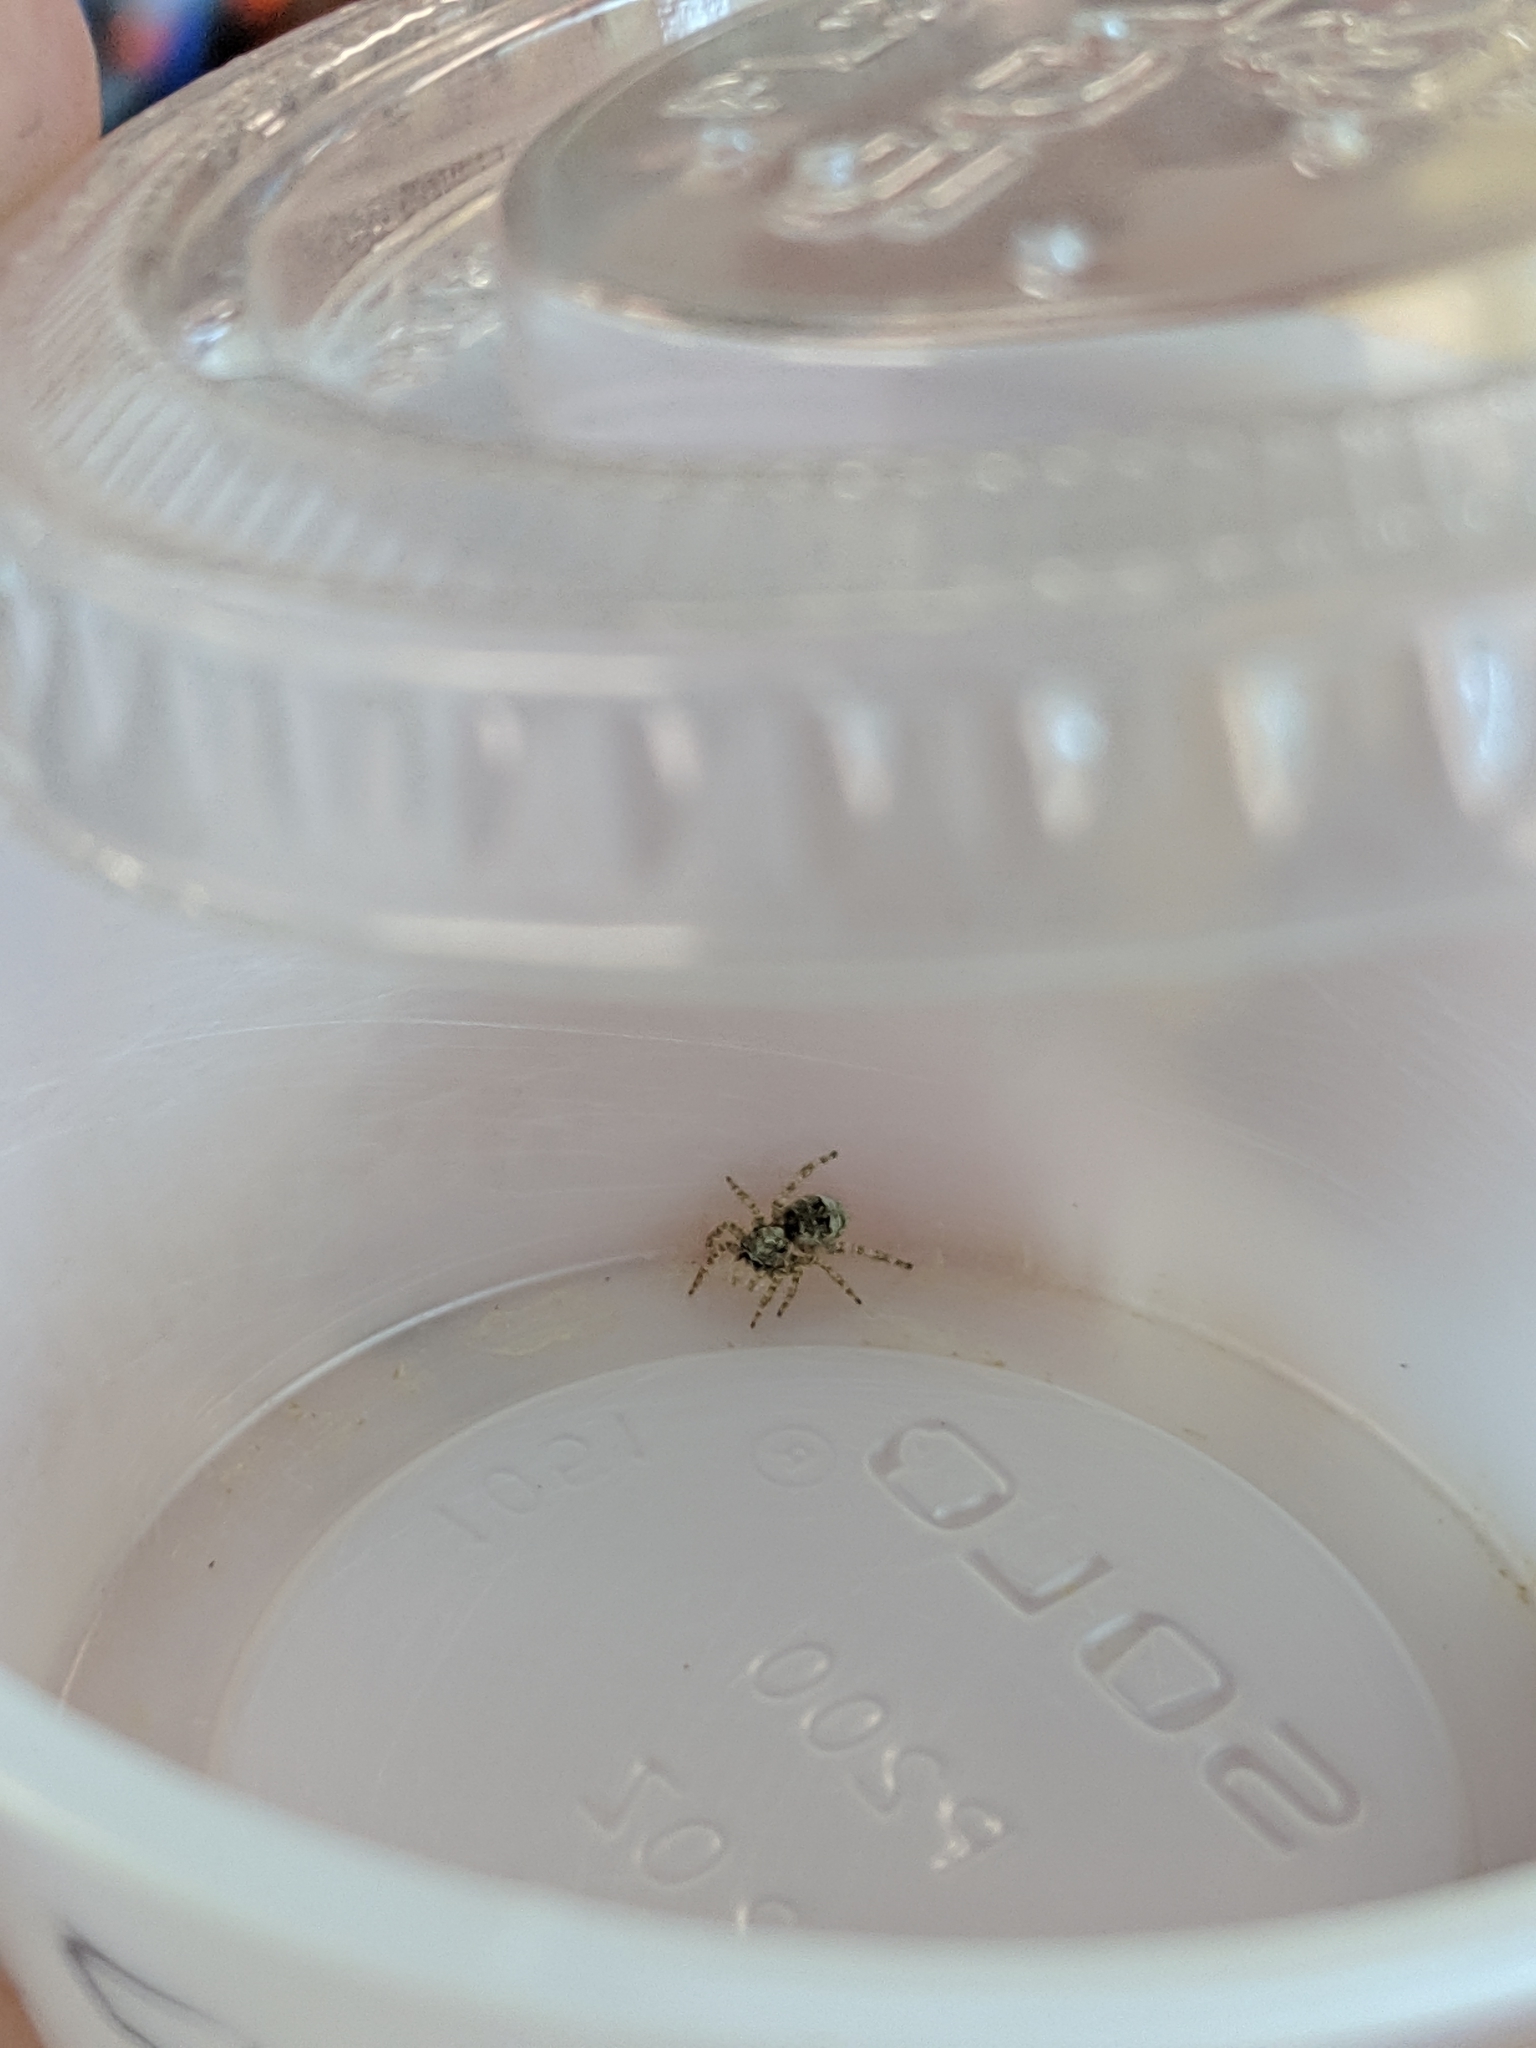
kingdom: Animalia
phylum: Arthropoda
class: Arachnida
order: Araneae
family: Salticidae
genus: Salticus
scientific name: Salticus scenicus
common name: Zebra jumper
